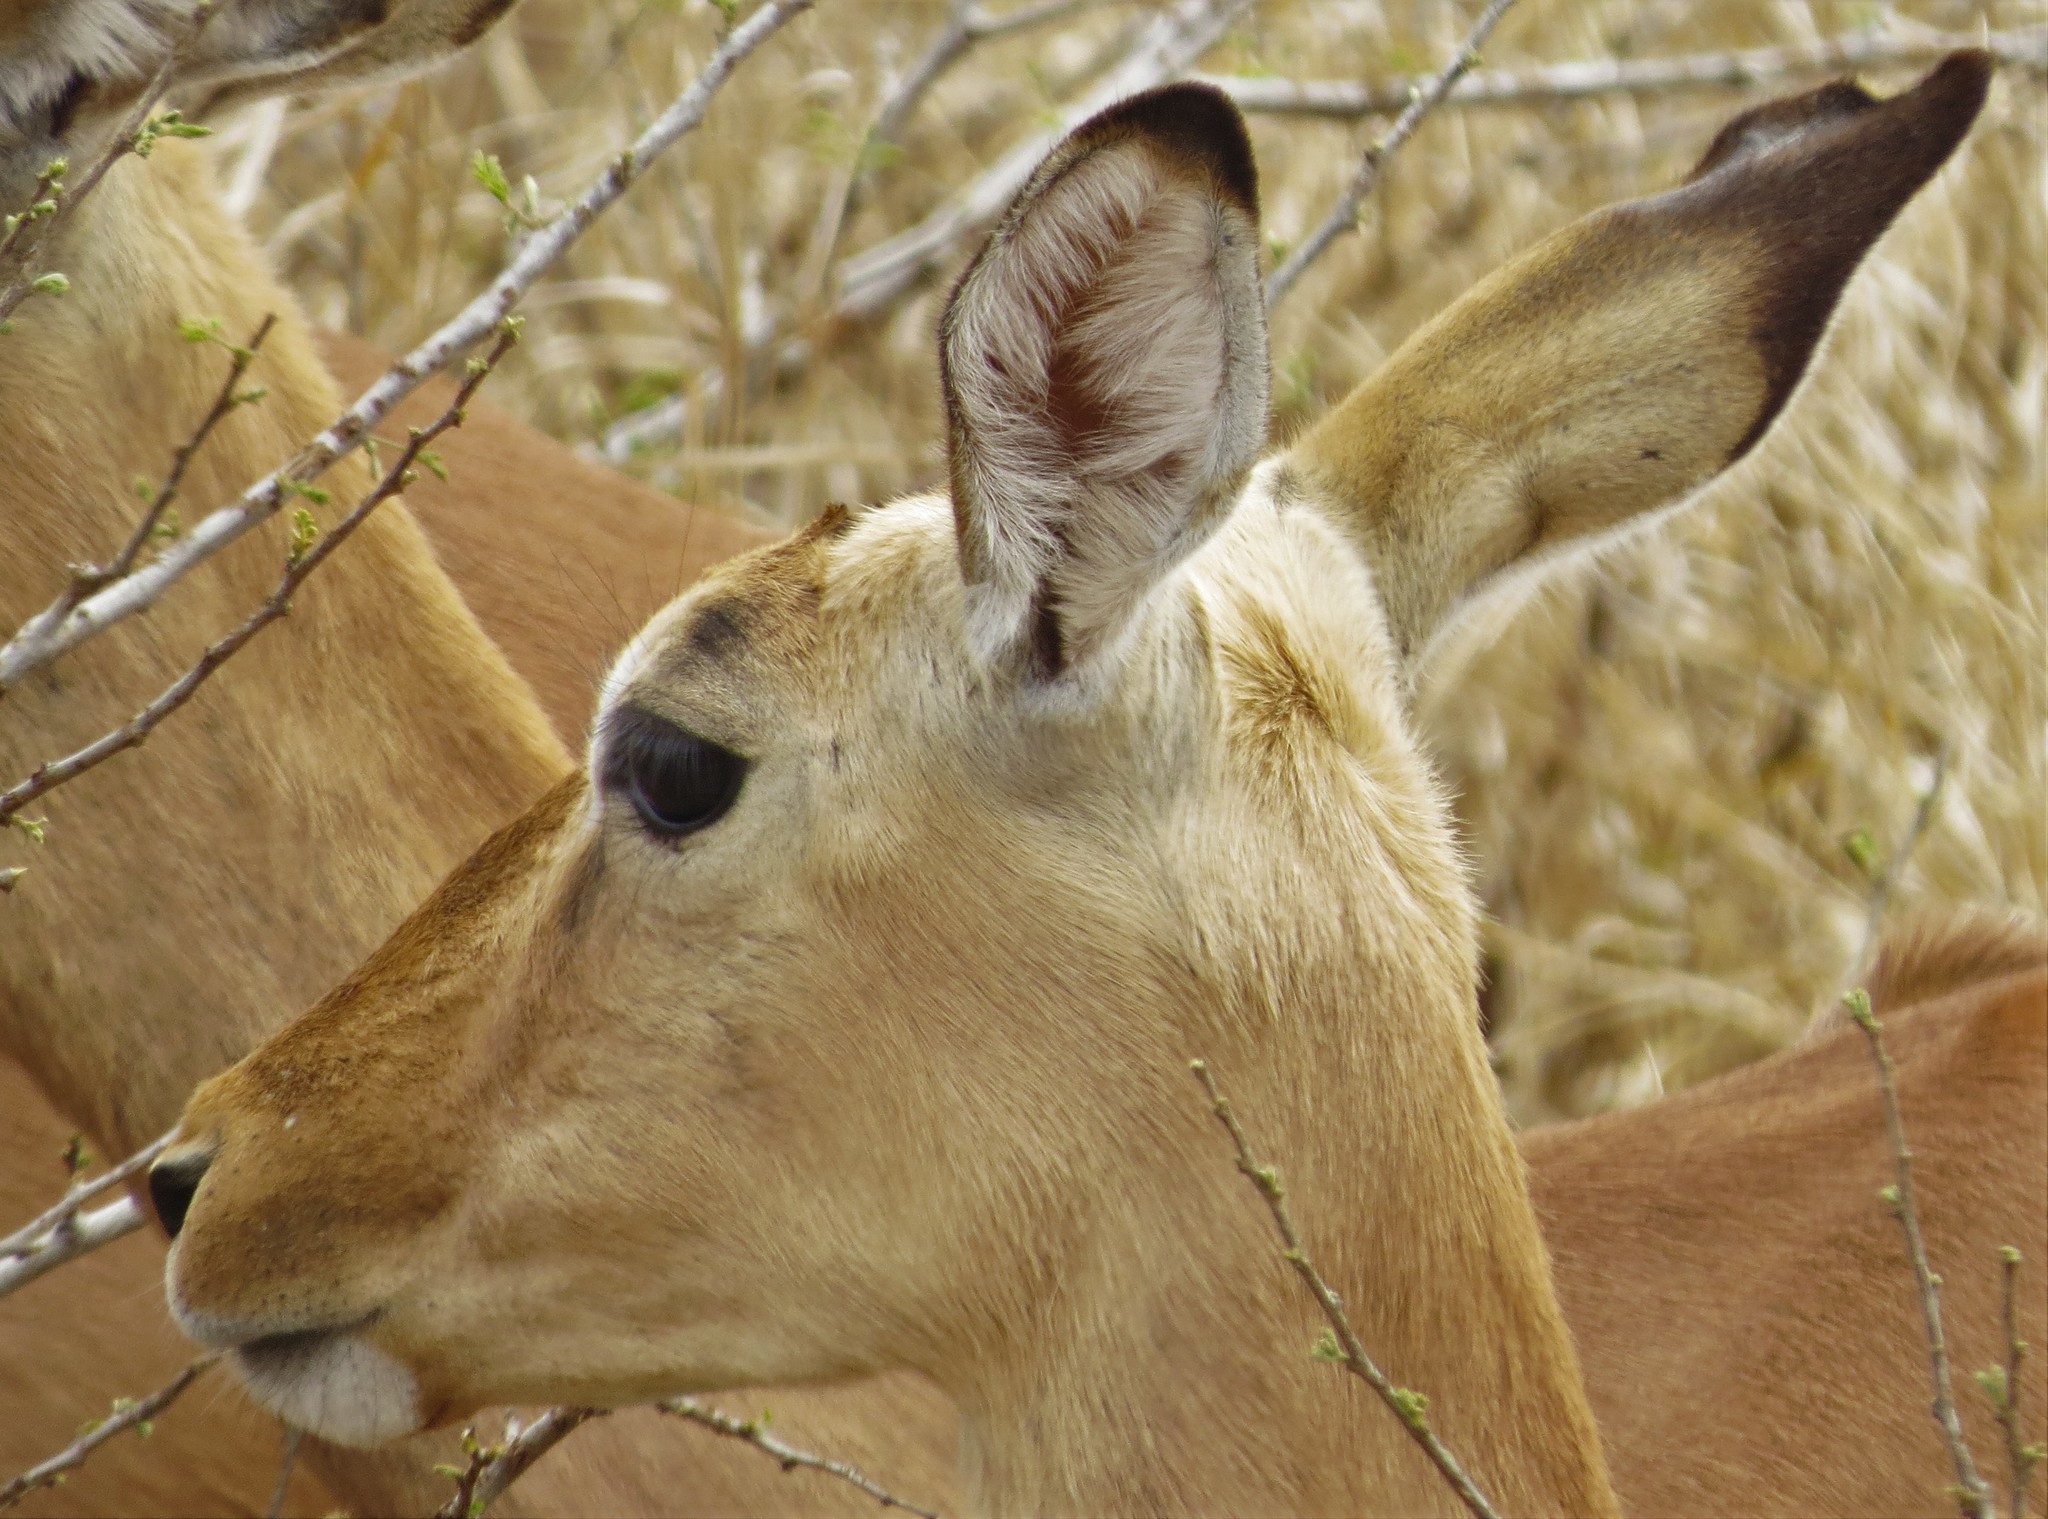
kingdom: Animalia
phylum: Chordata
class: Mammalia
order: Artiodactyla
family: Bovidae
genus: Aepyceros
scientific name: Aepyceros melampus
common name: Impala
